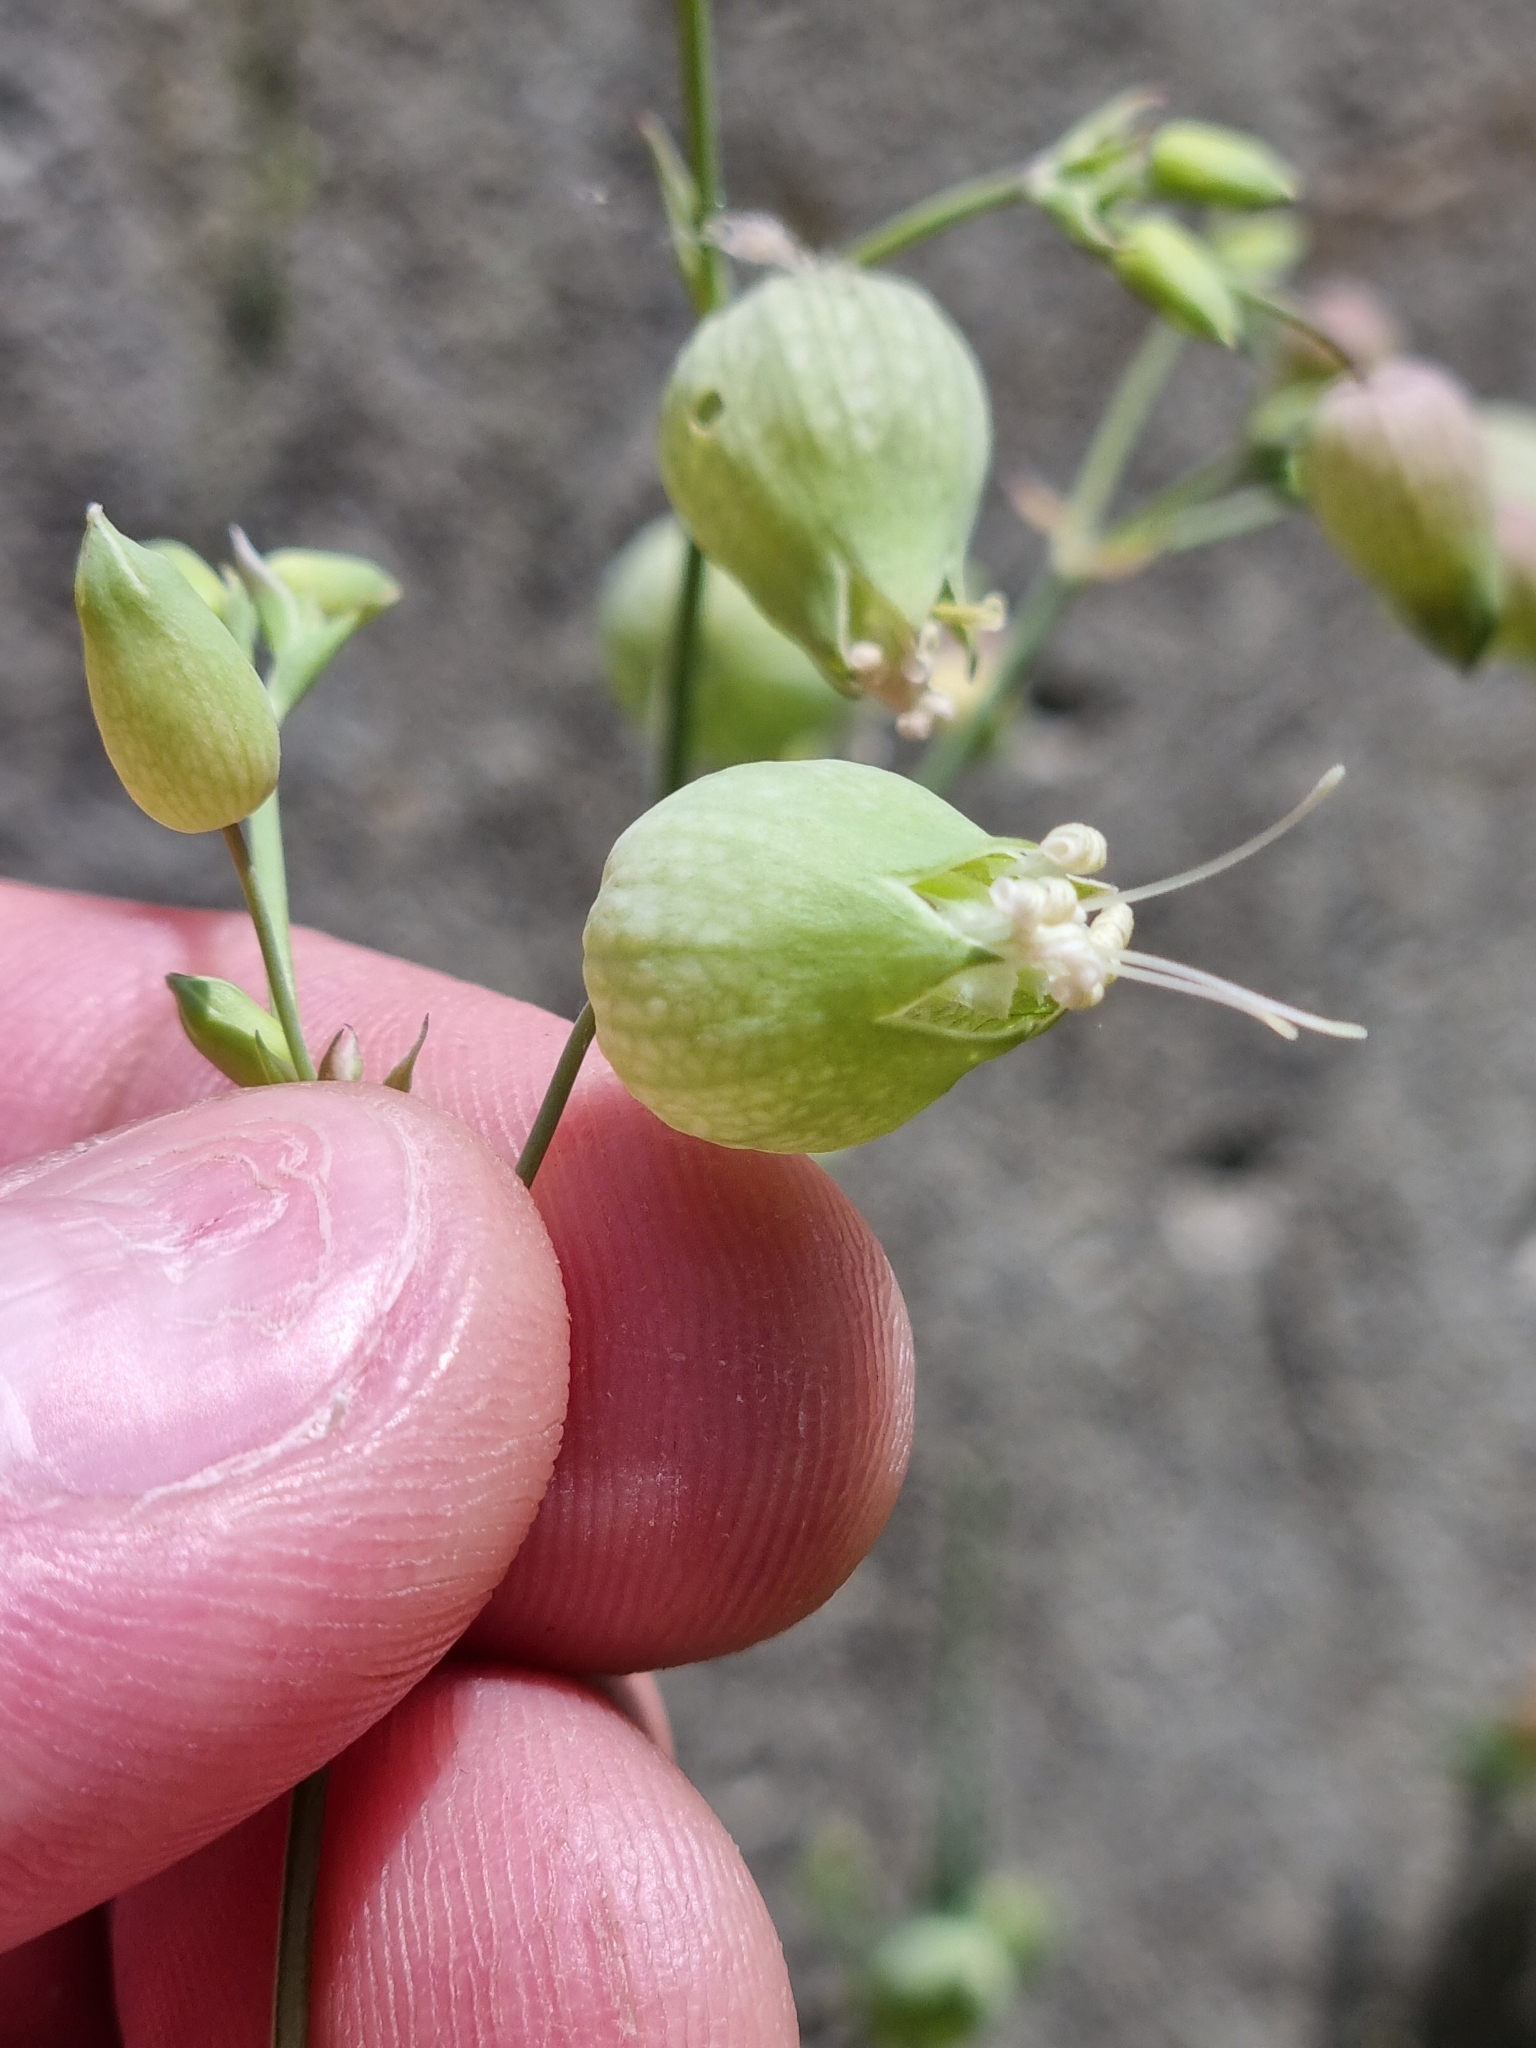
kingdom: Plantae
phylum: Tracheophyta
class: Magnoliopsida
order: Caryophyllales
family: Caryophyllaceae
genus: Silene
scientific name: Silene vulgaris
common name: Bladder campion
